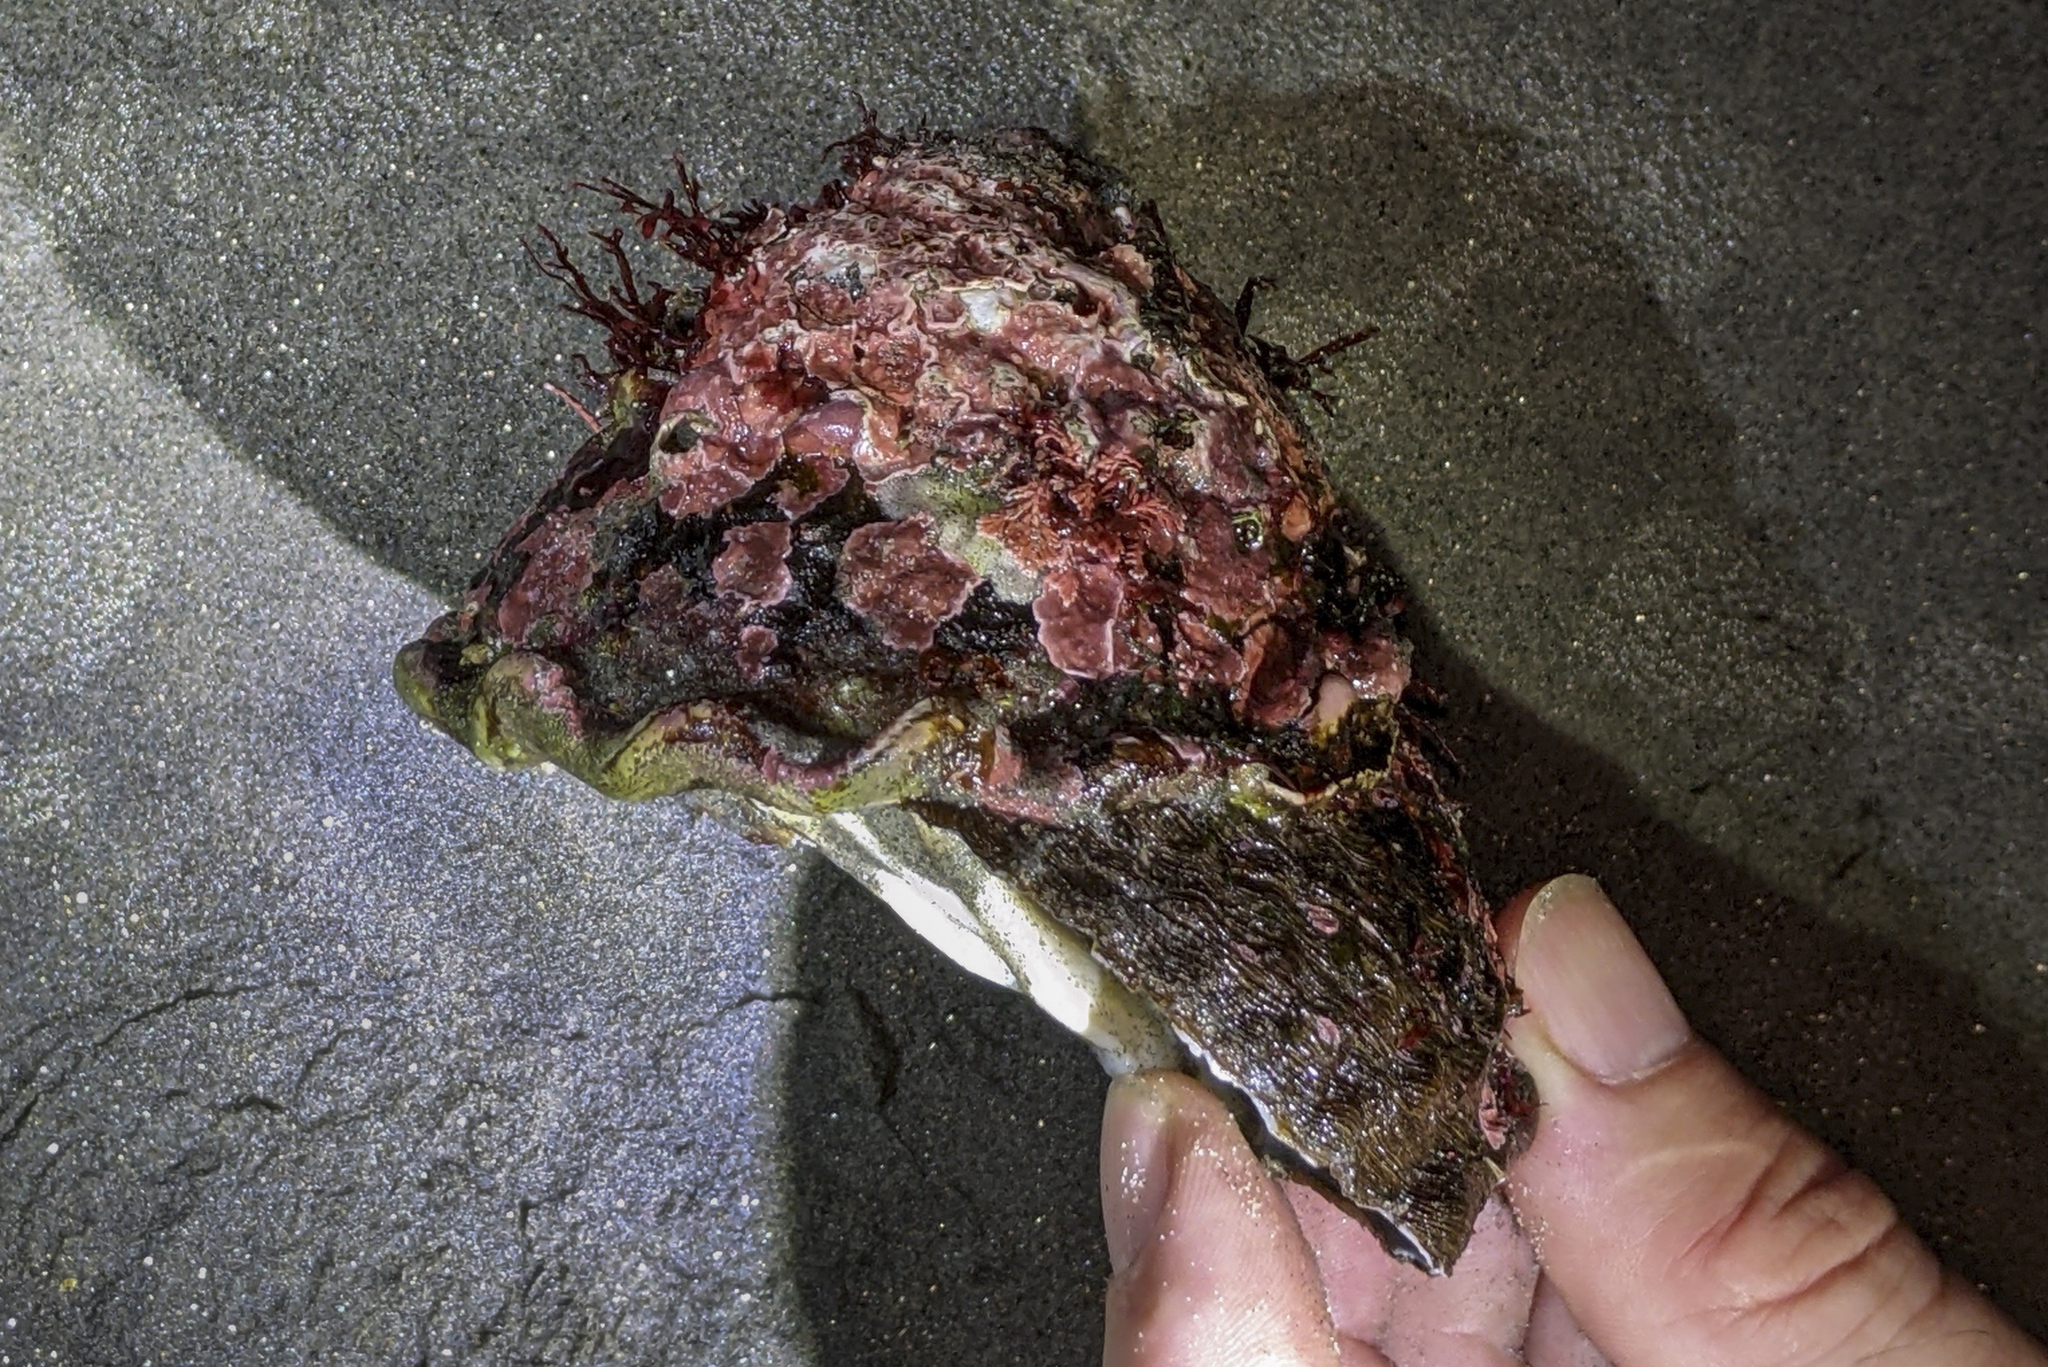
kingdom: Animalia
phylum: Mollusca
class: Gastropoda
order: Trochida
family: Turbinidae
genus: Megastraea
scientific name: Megastraea undosa
